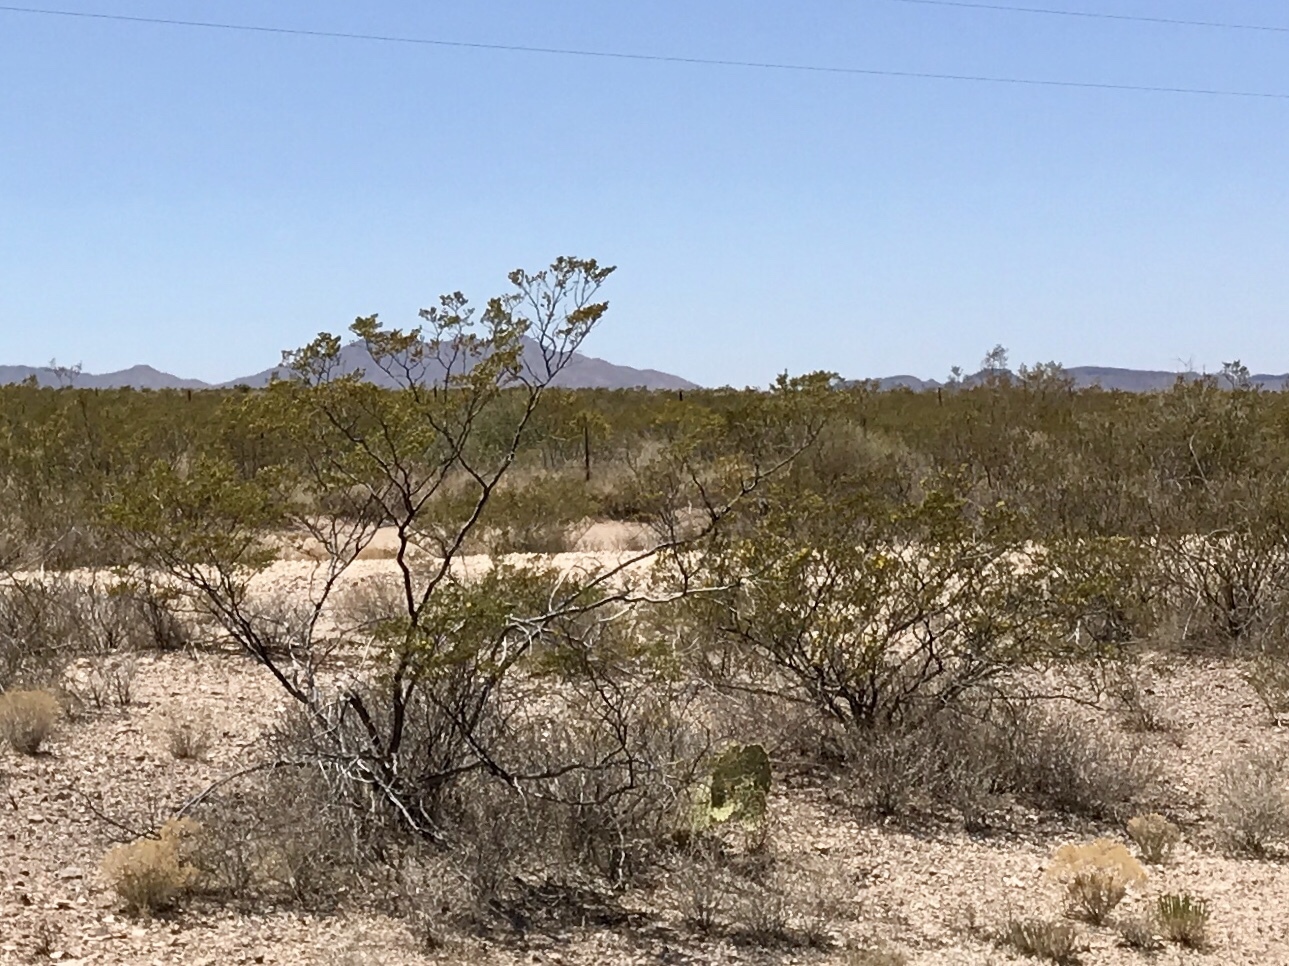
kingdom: Plantae
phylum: Tracheophyta
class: Magnoliopsida
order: Zygophyllales
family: Zygophyllaceae
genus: Larrea
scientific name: Larrea tridentata
